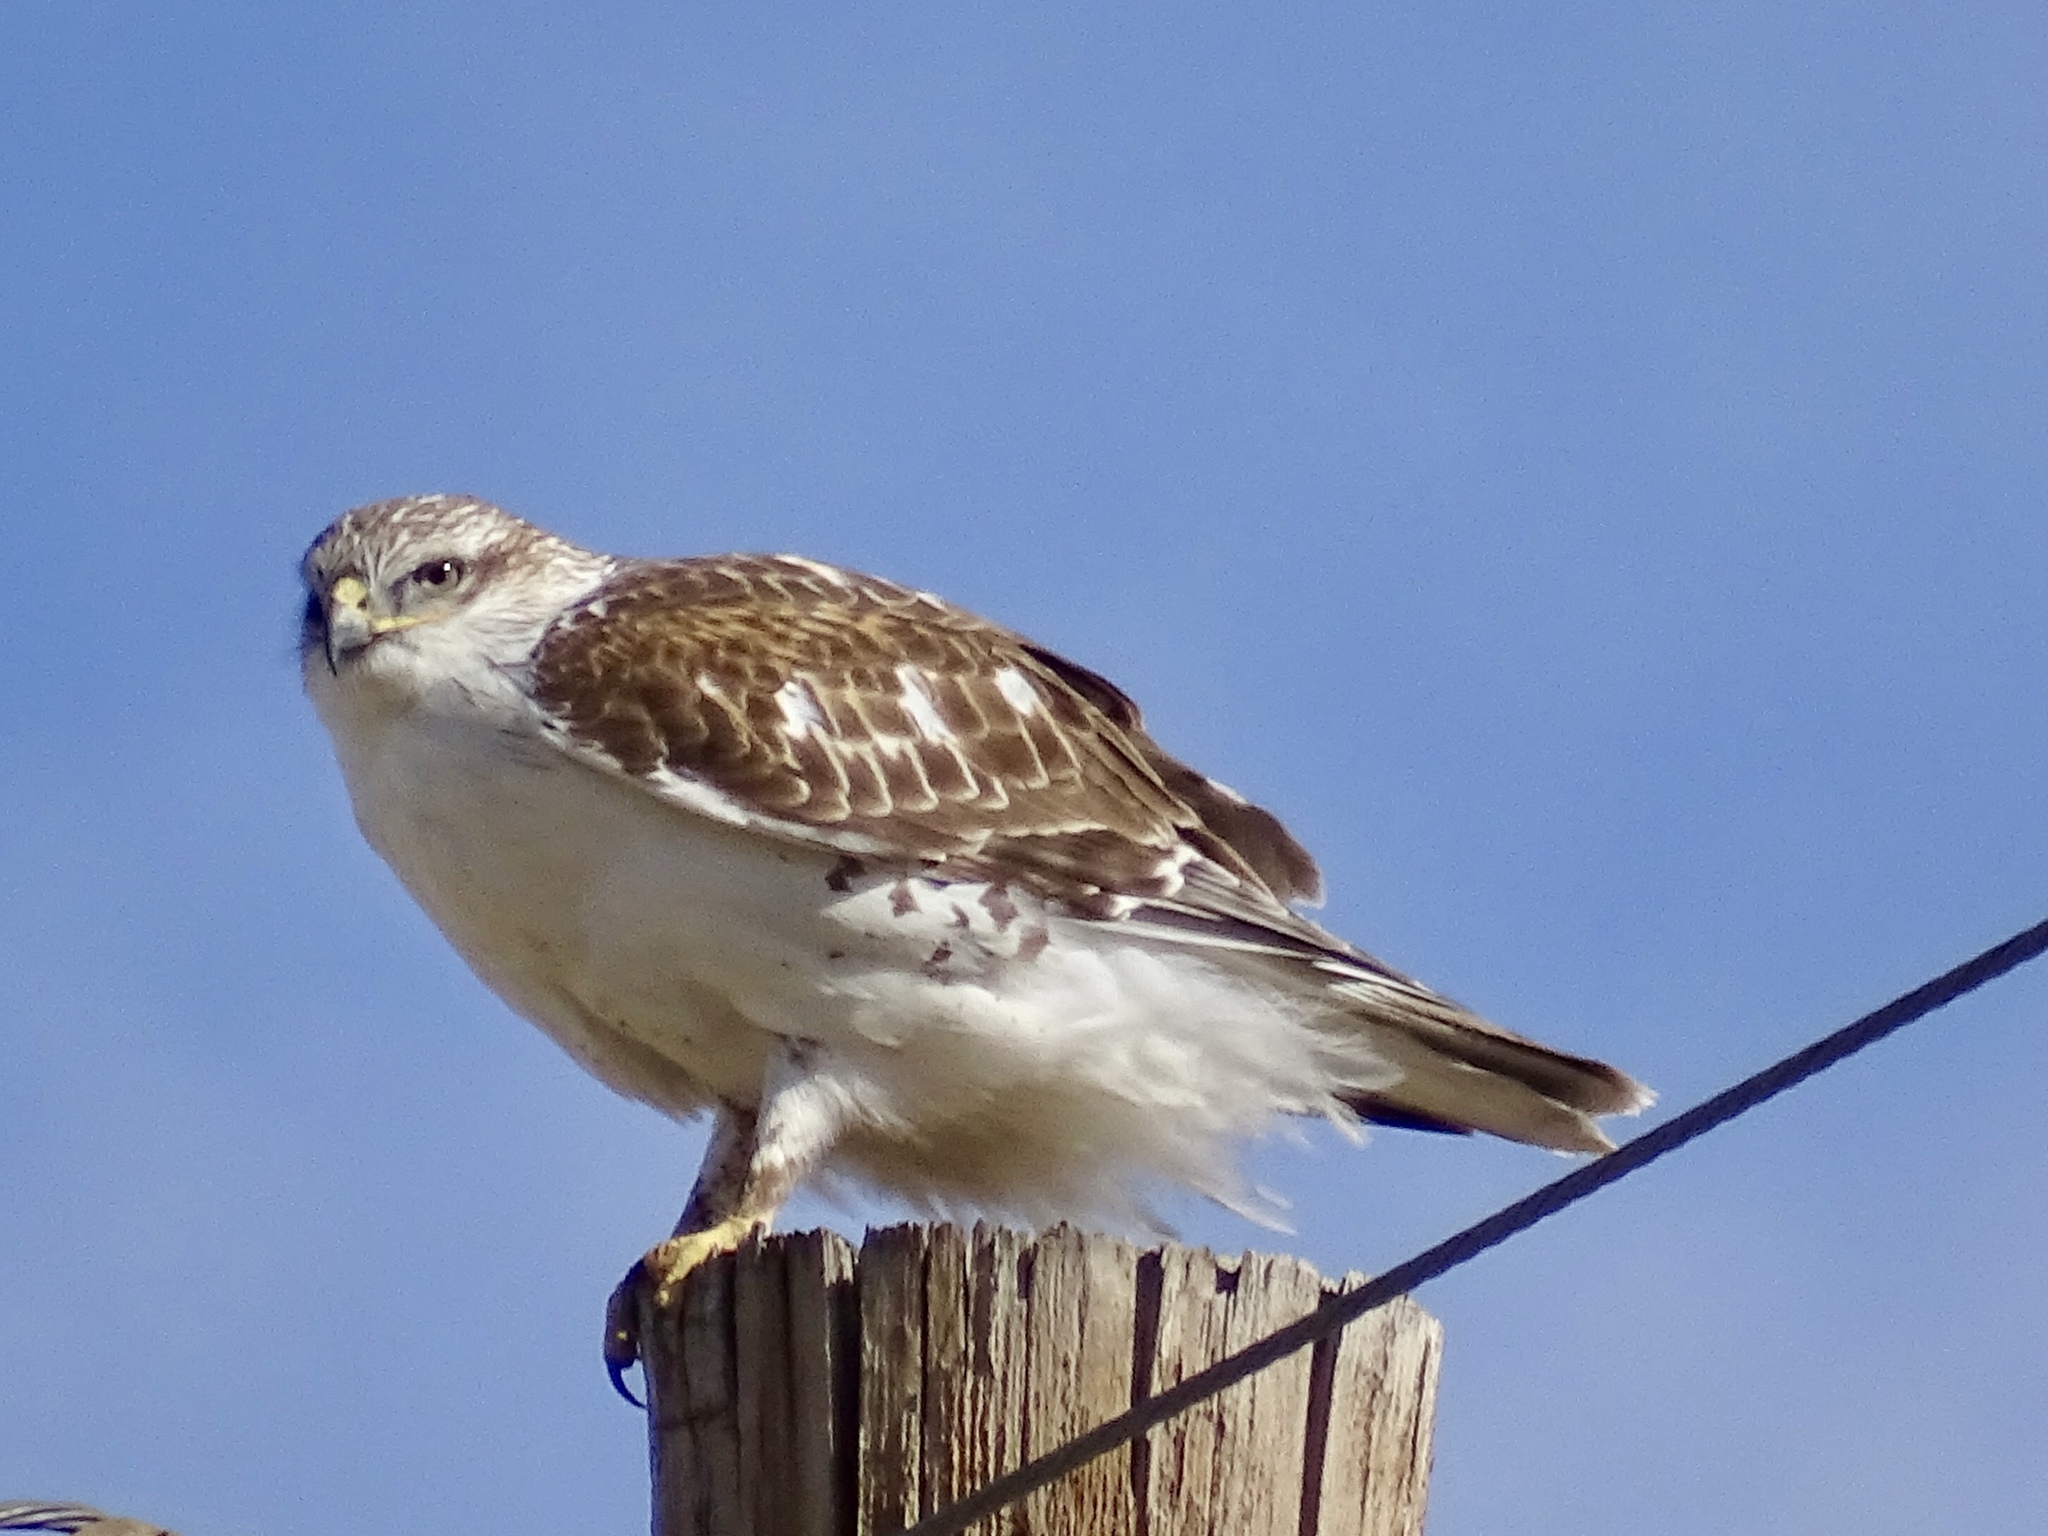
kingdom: Animalia
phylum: Chordata
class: Aves
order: Accipitriformes
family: Accipitridae
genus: Buteo
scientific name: Buteo regalis
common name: Ferruginous hawk
